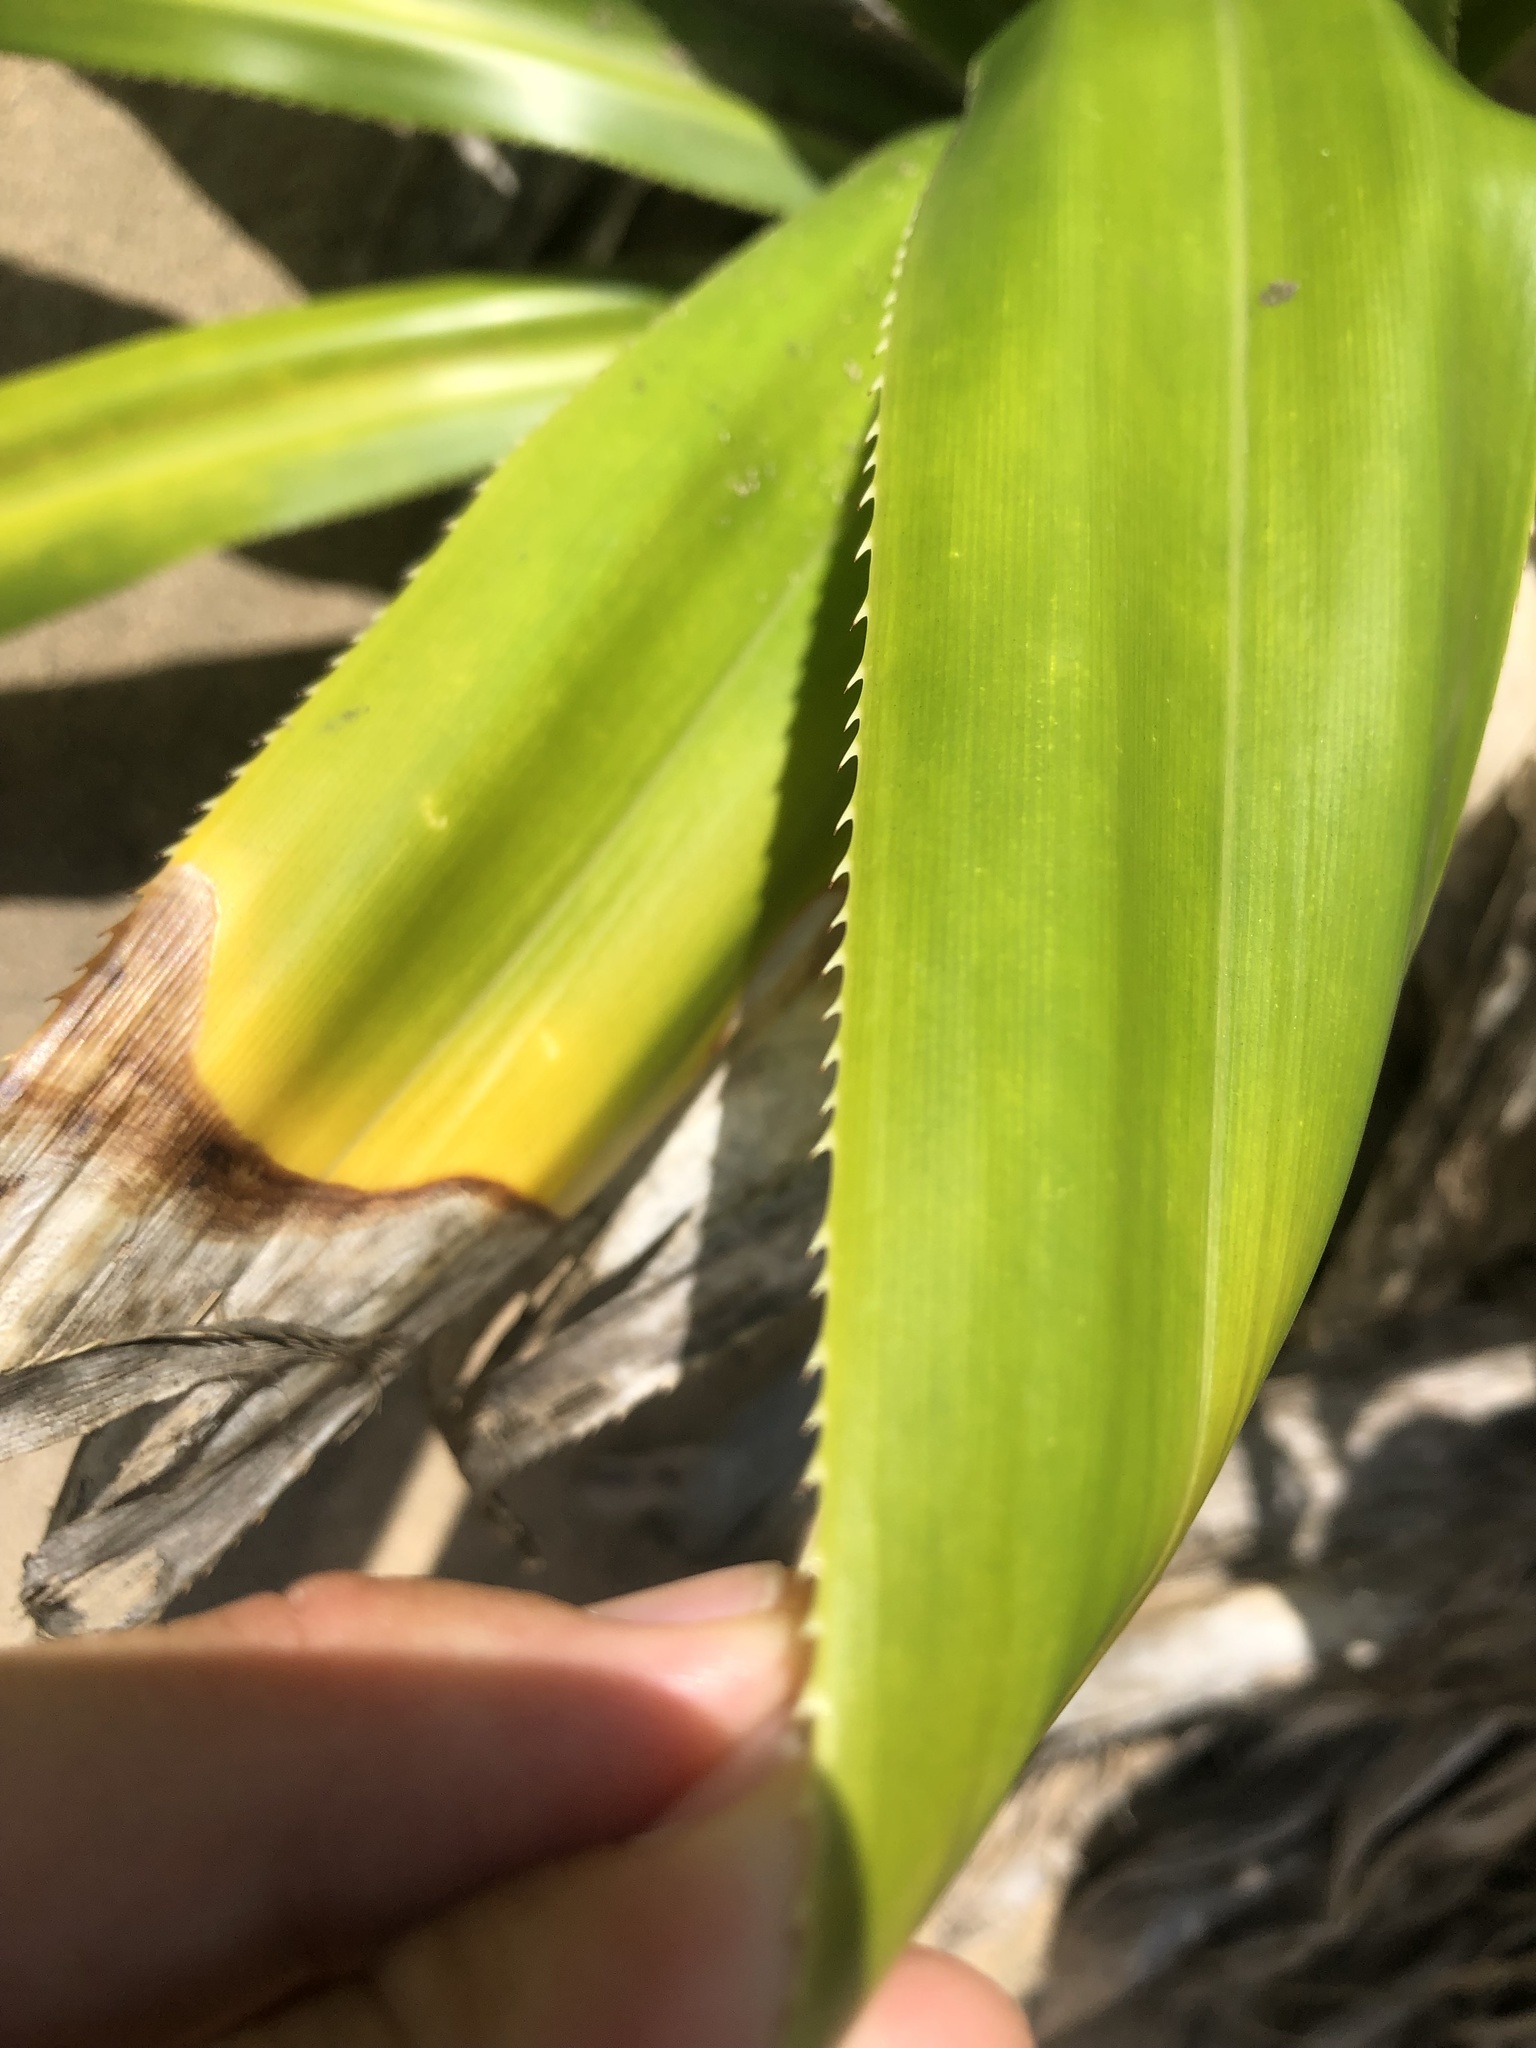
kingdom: Plantae
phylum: Tracheophyta
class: Liliopsida
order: Pandanales
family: Pandanaceae
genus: Pandanus
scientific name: Pandanus dubius
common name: Knob-fruited screwpine
